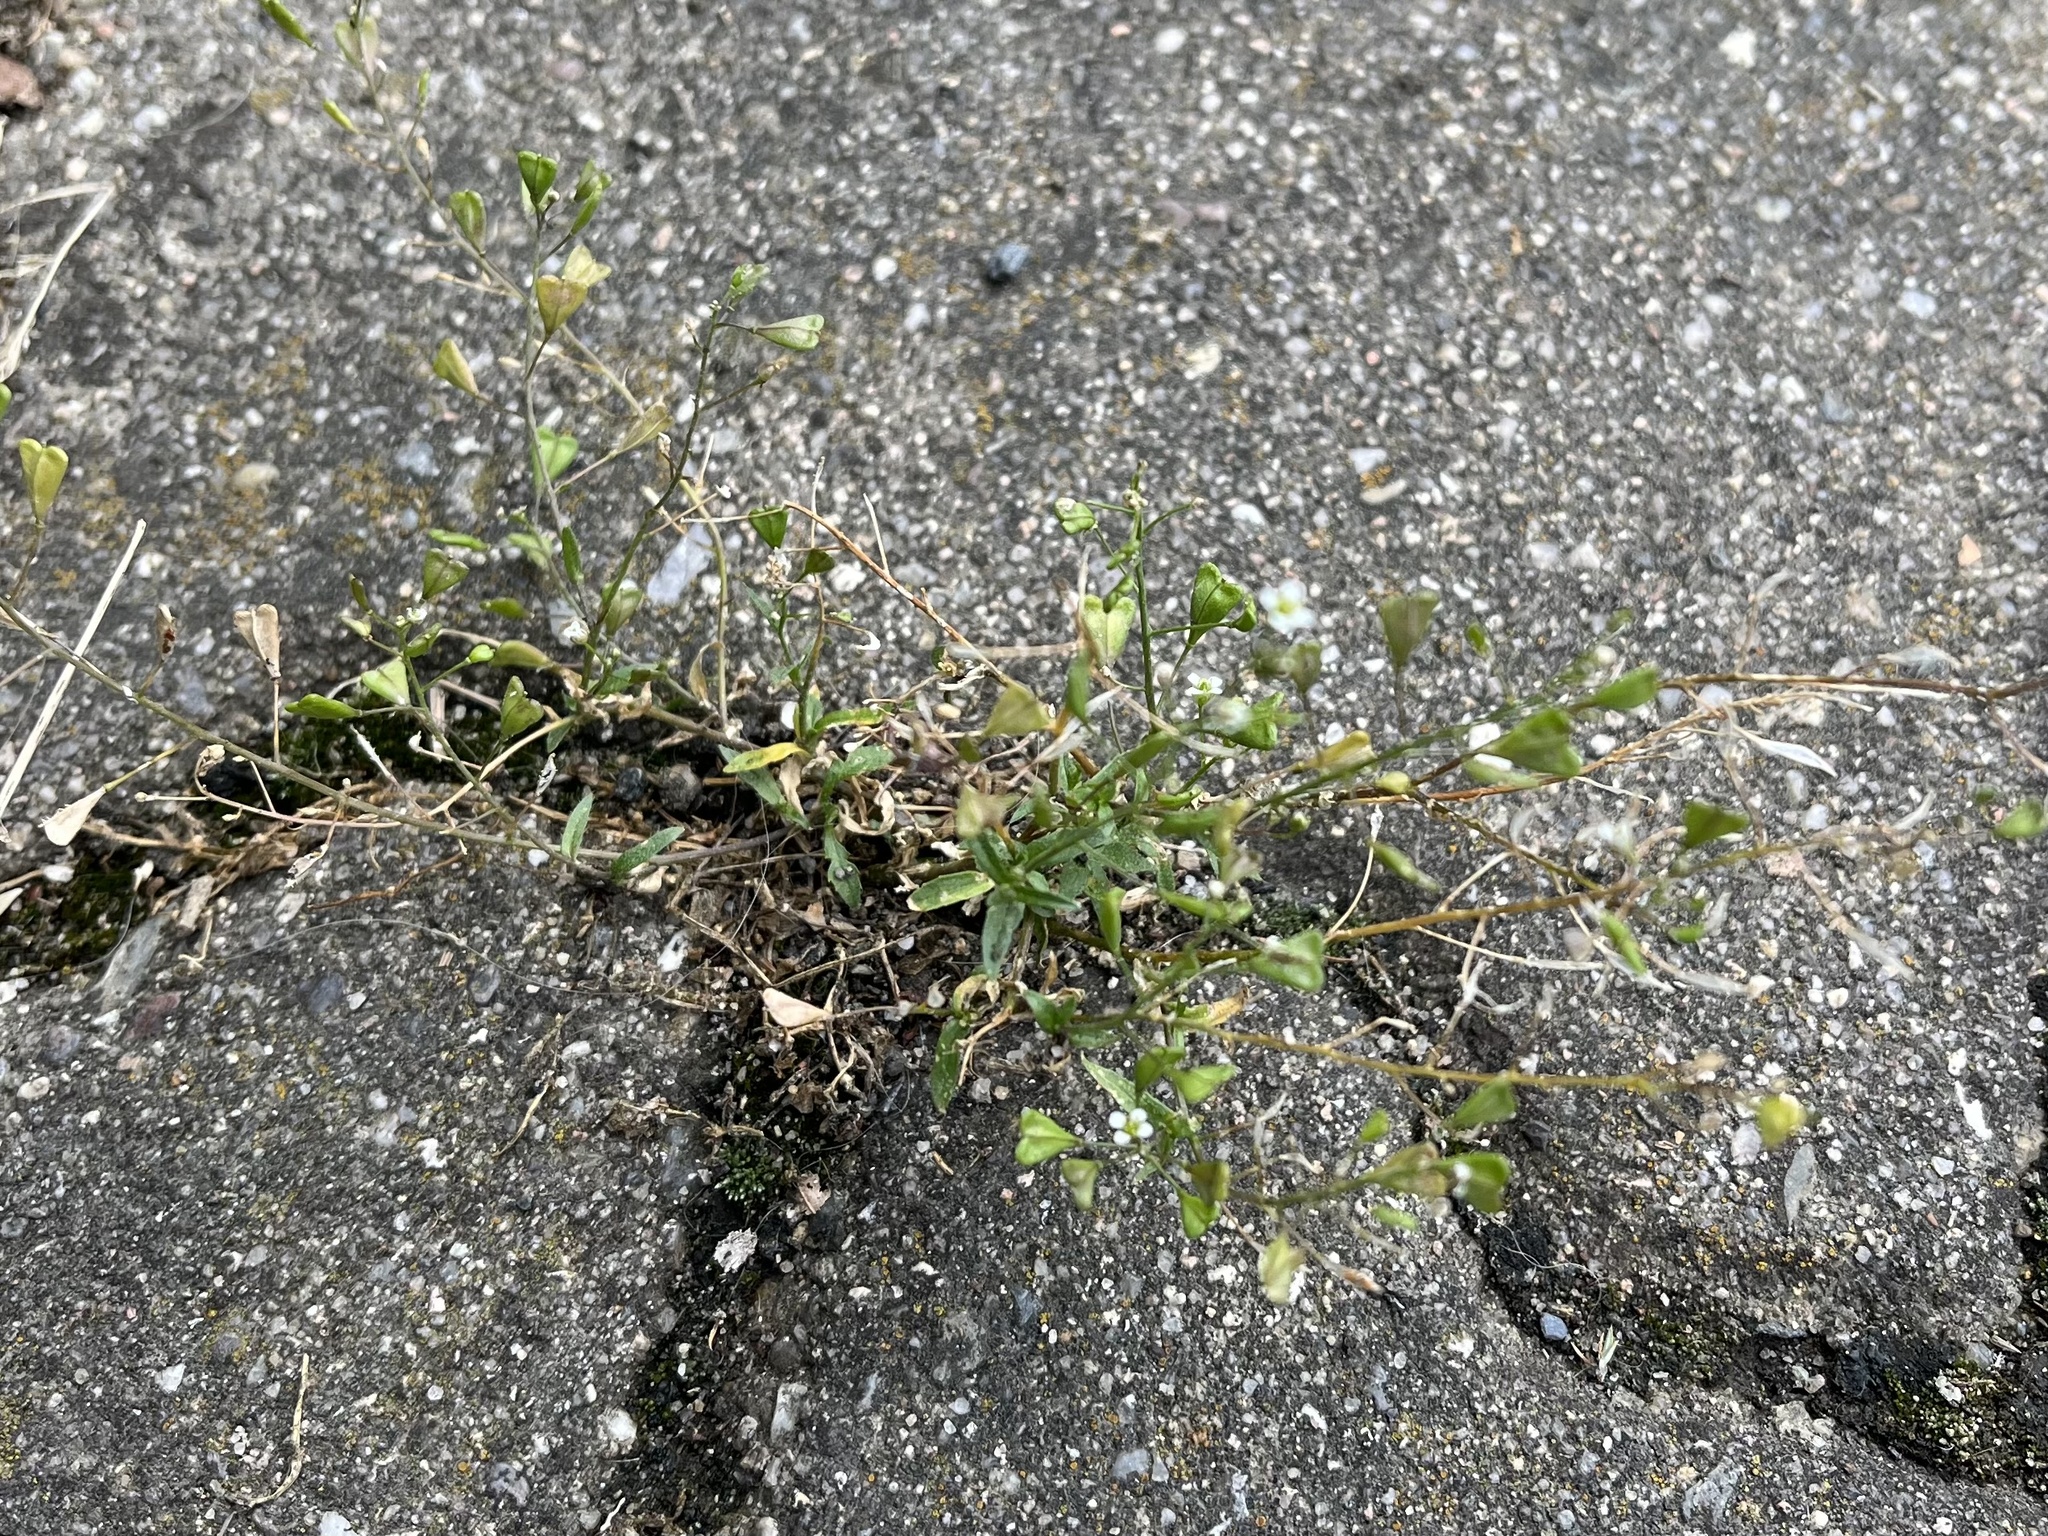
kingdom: Plantae
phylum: Tracheophyta
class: Magnoliopsida
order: Brassicales
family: Brassicaceae
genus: Capsella
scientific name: Capsella bursa-pastoris
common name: Shepherd's purse
